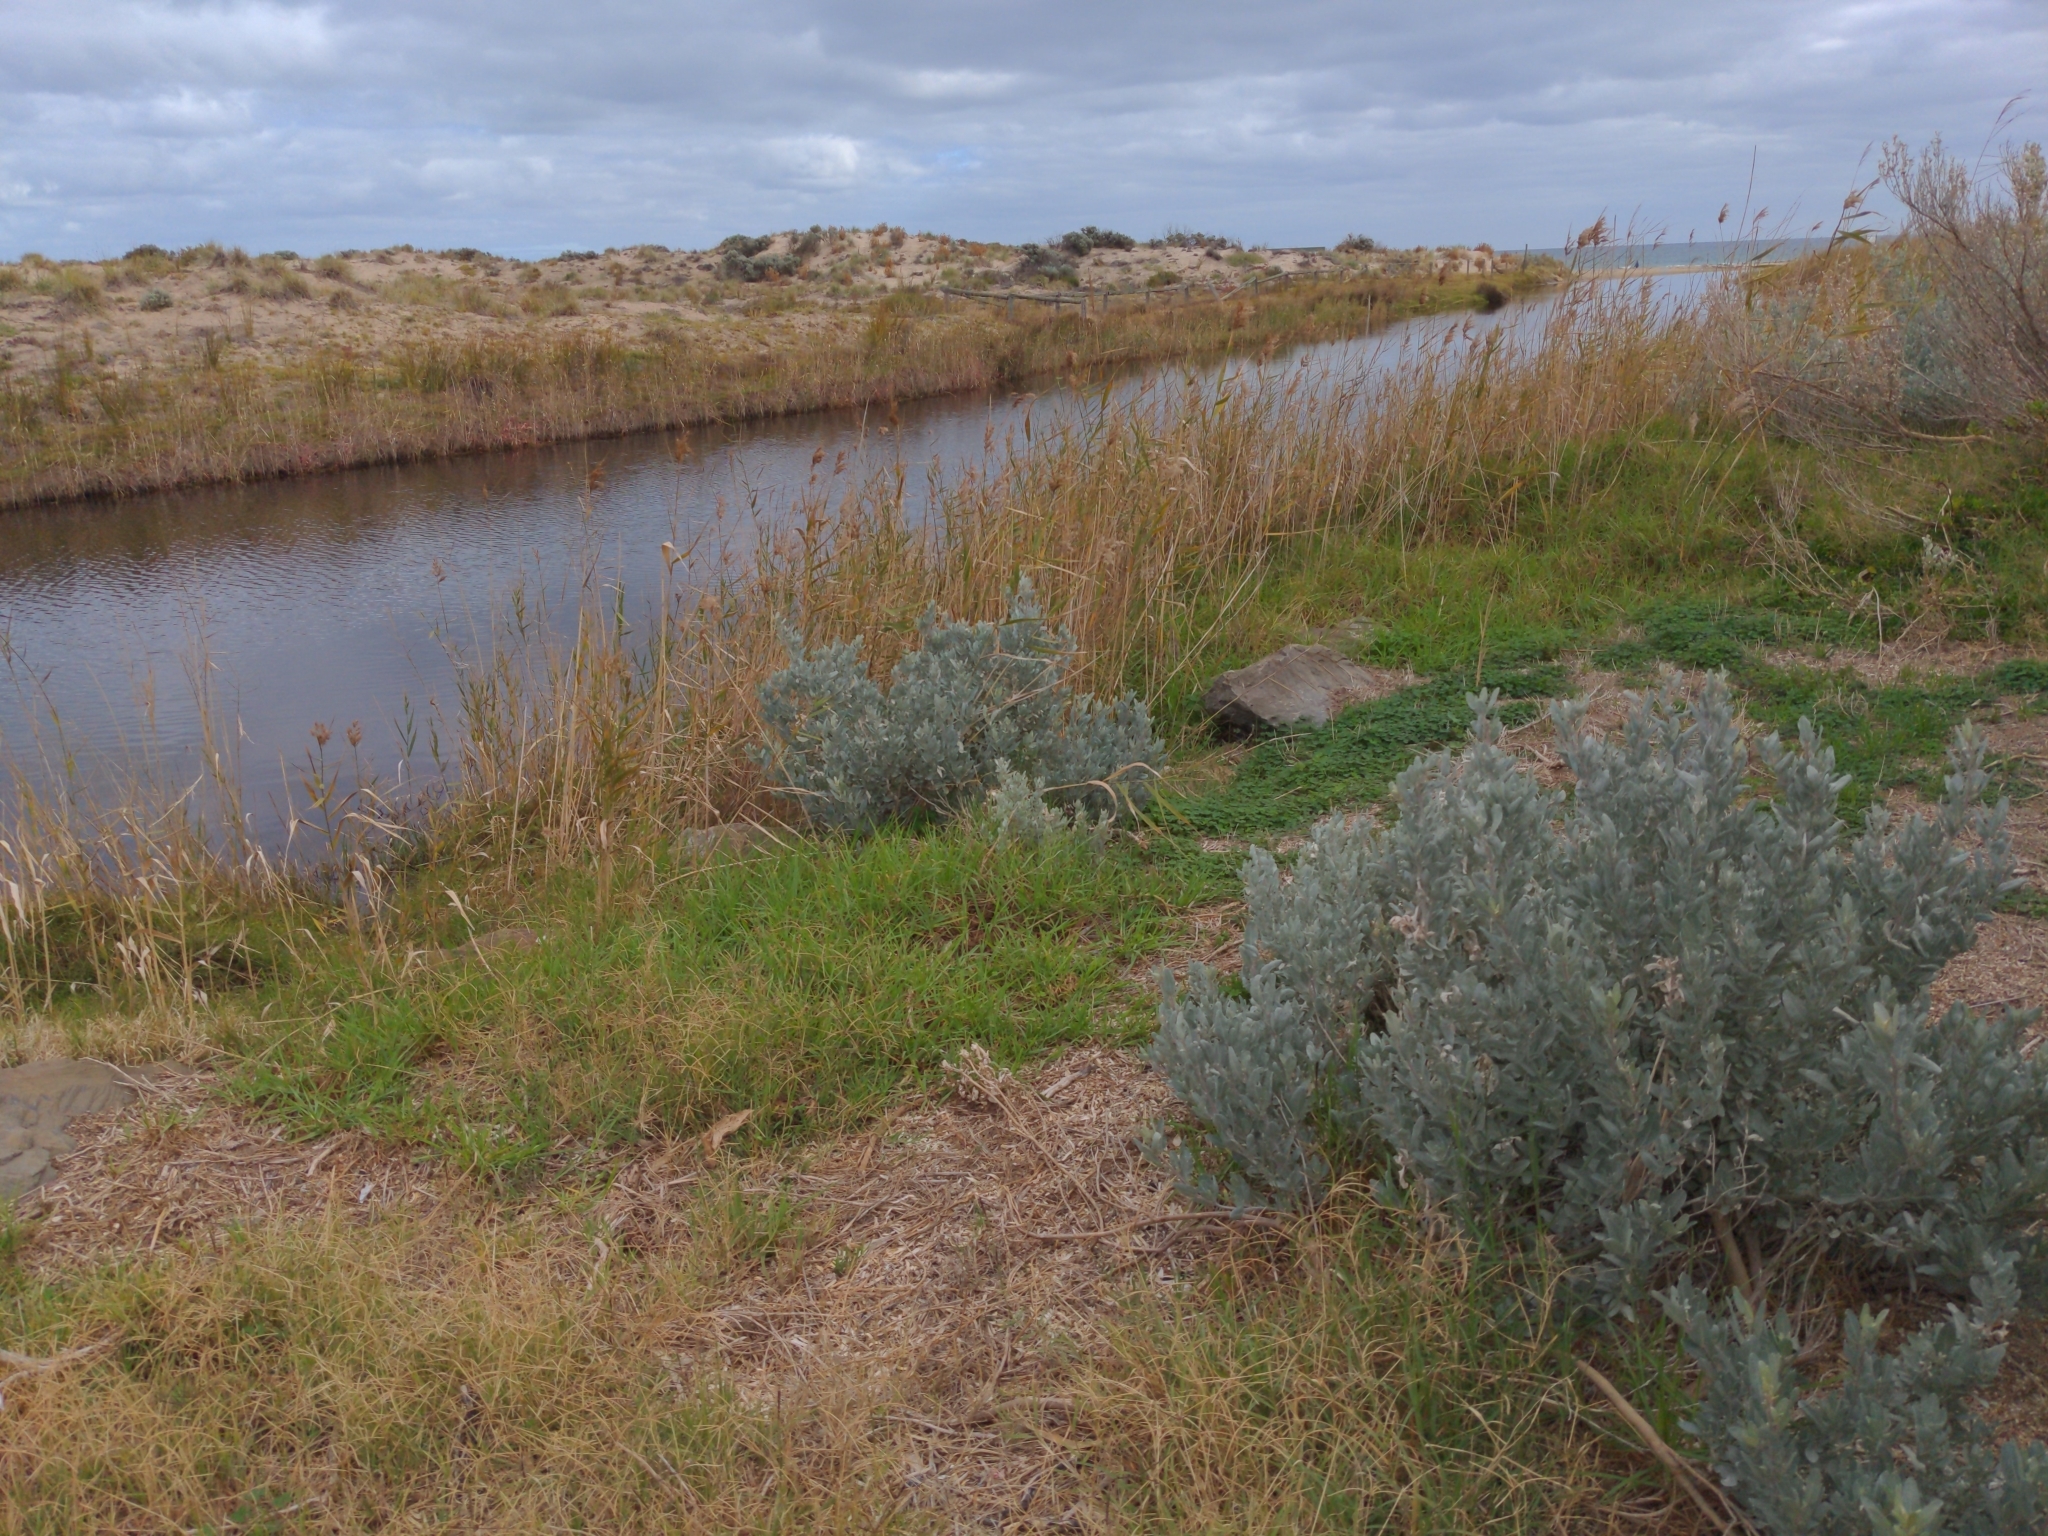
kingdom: Plantae
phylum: Tracheophyta
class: Magnoliopsida
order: Caryophyllales
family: Amaranthaceae
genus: Atriplex
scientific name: Atriplex cinerea
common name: Grey saltbush
